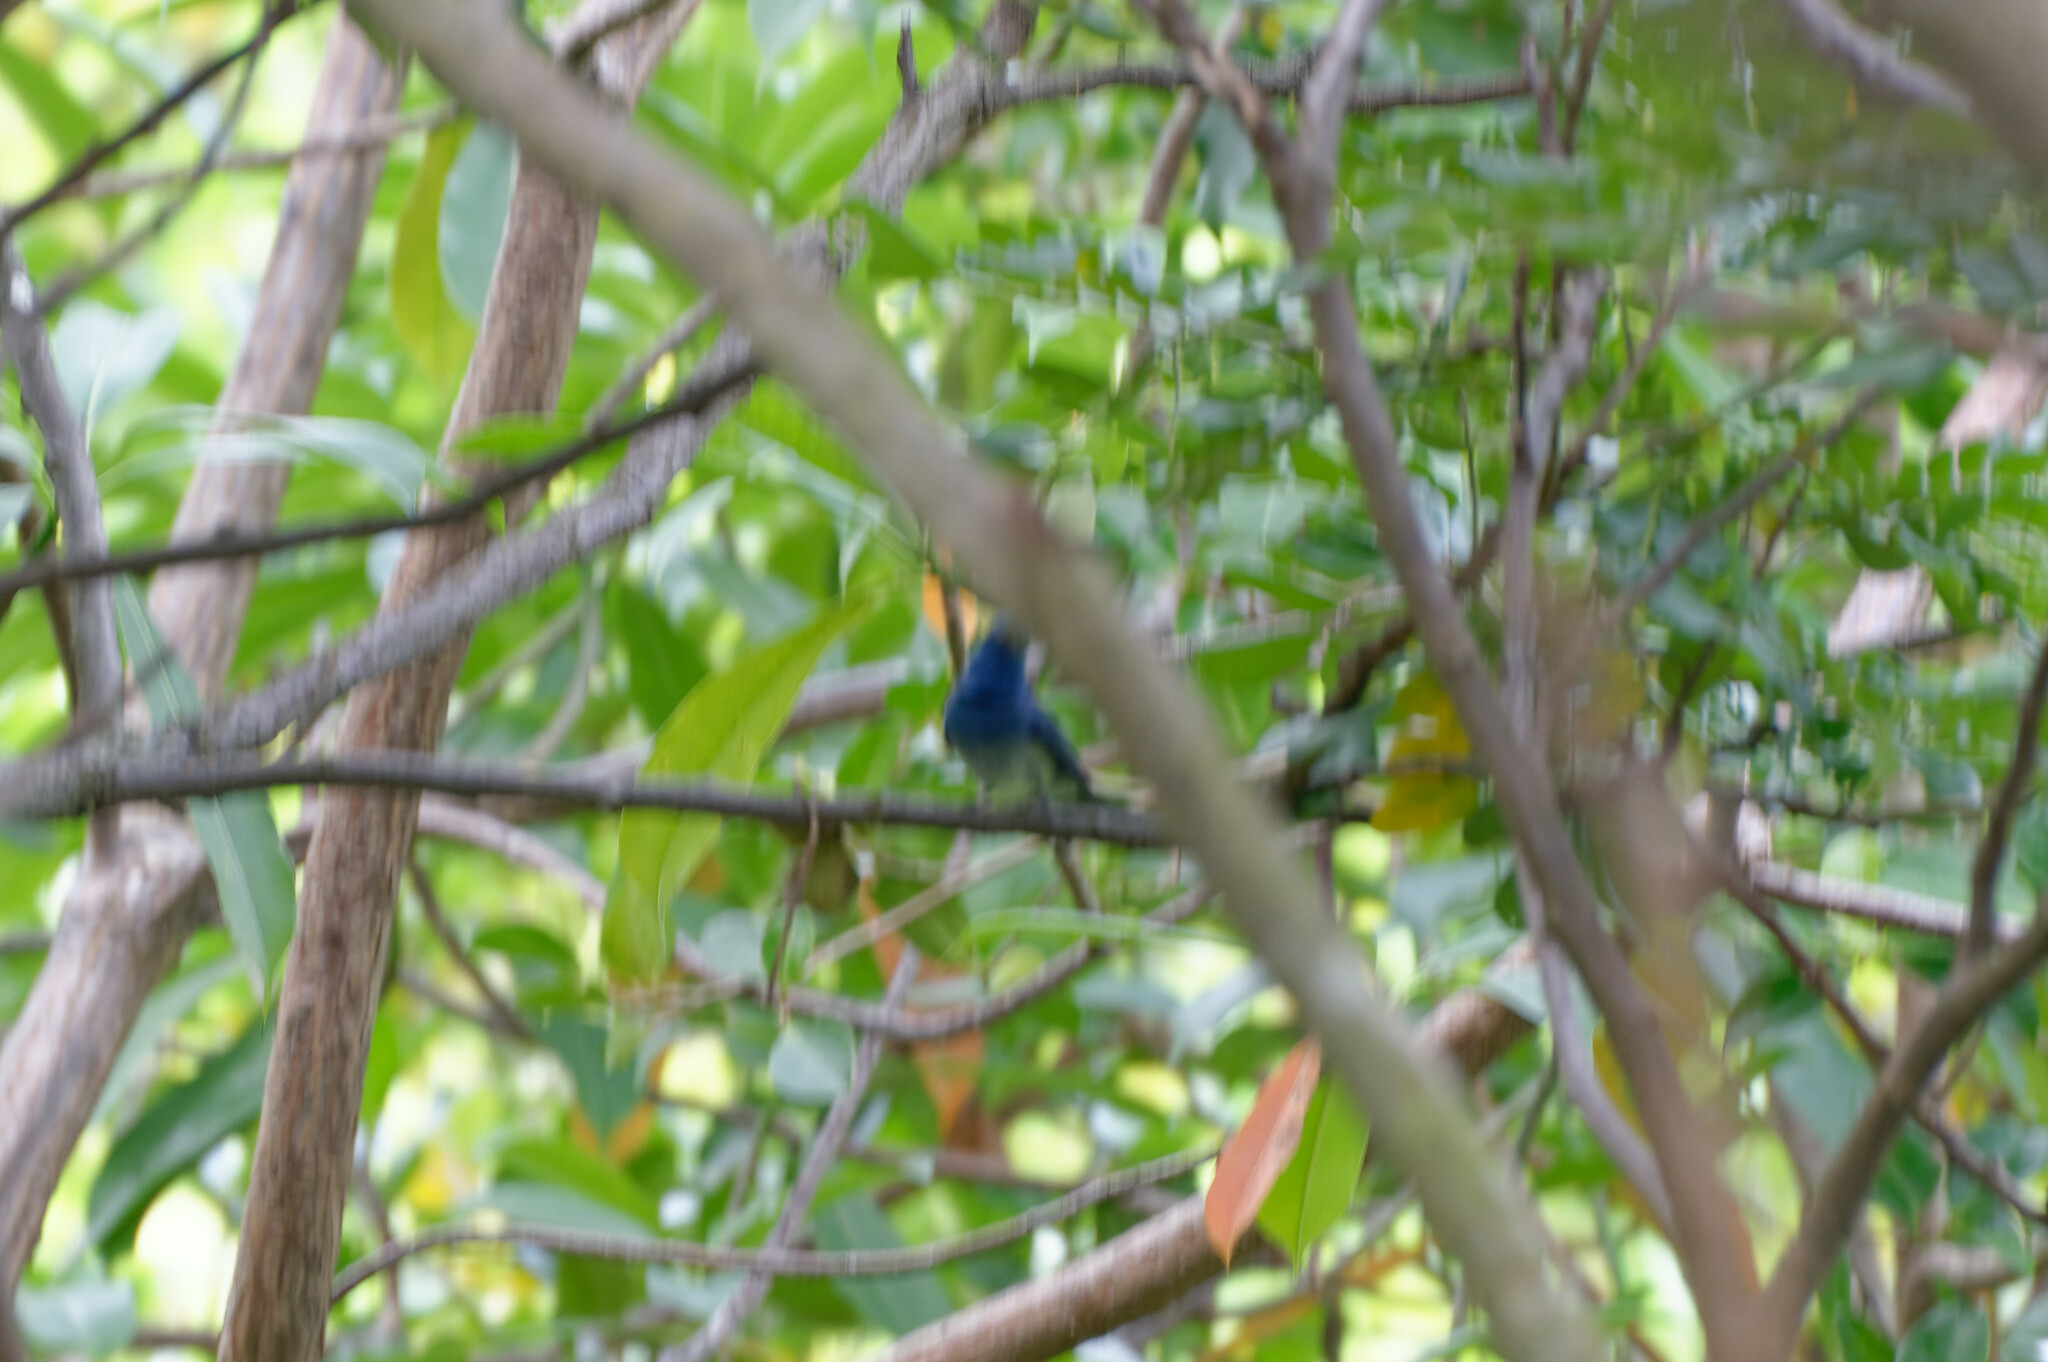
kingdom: Animalia
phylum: Chordata
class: Aves
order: Passeriformes
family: Monarchidae
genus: Hypothymis
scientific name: Hypothymis azurea
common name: Black-naped monarch
